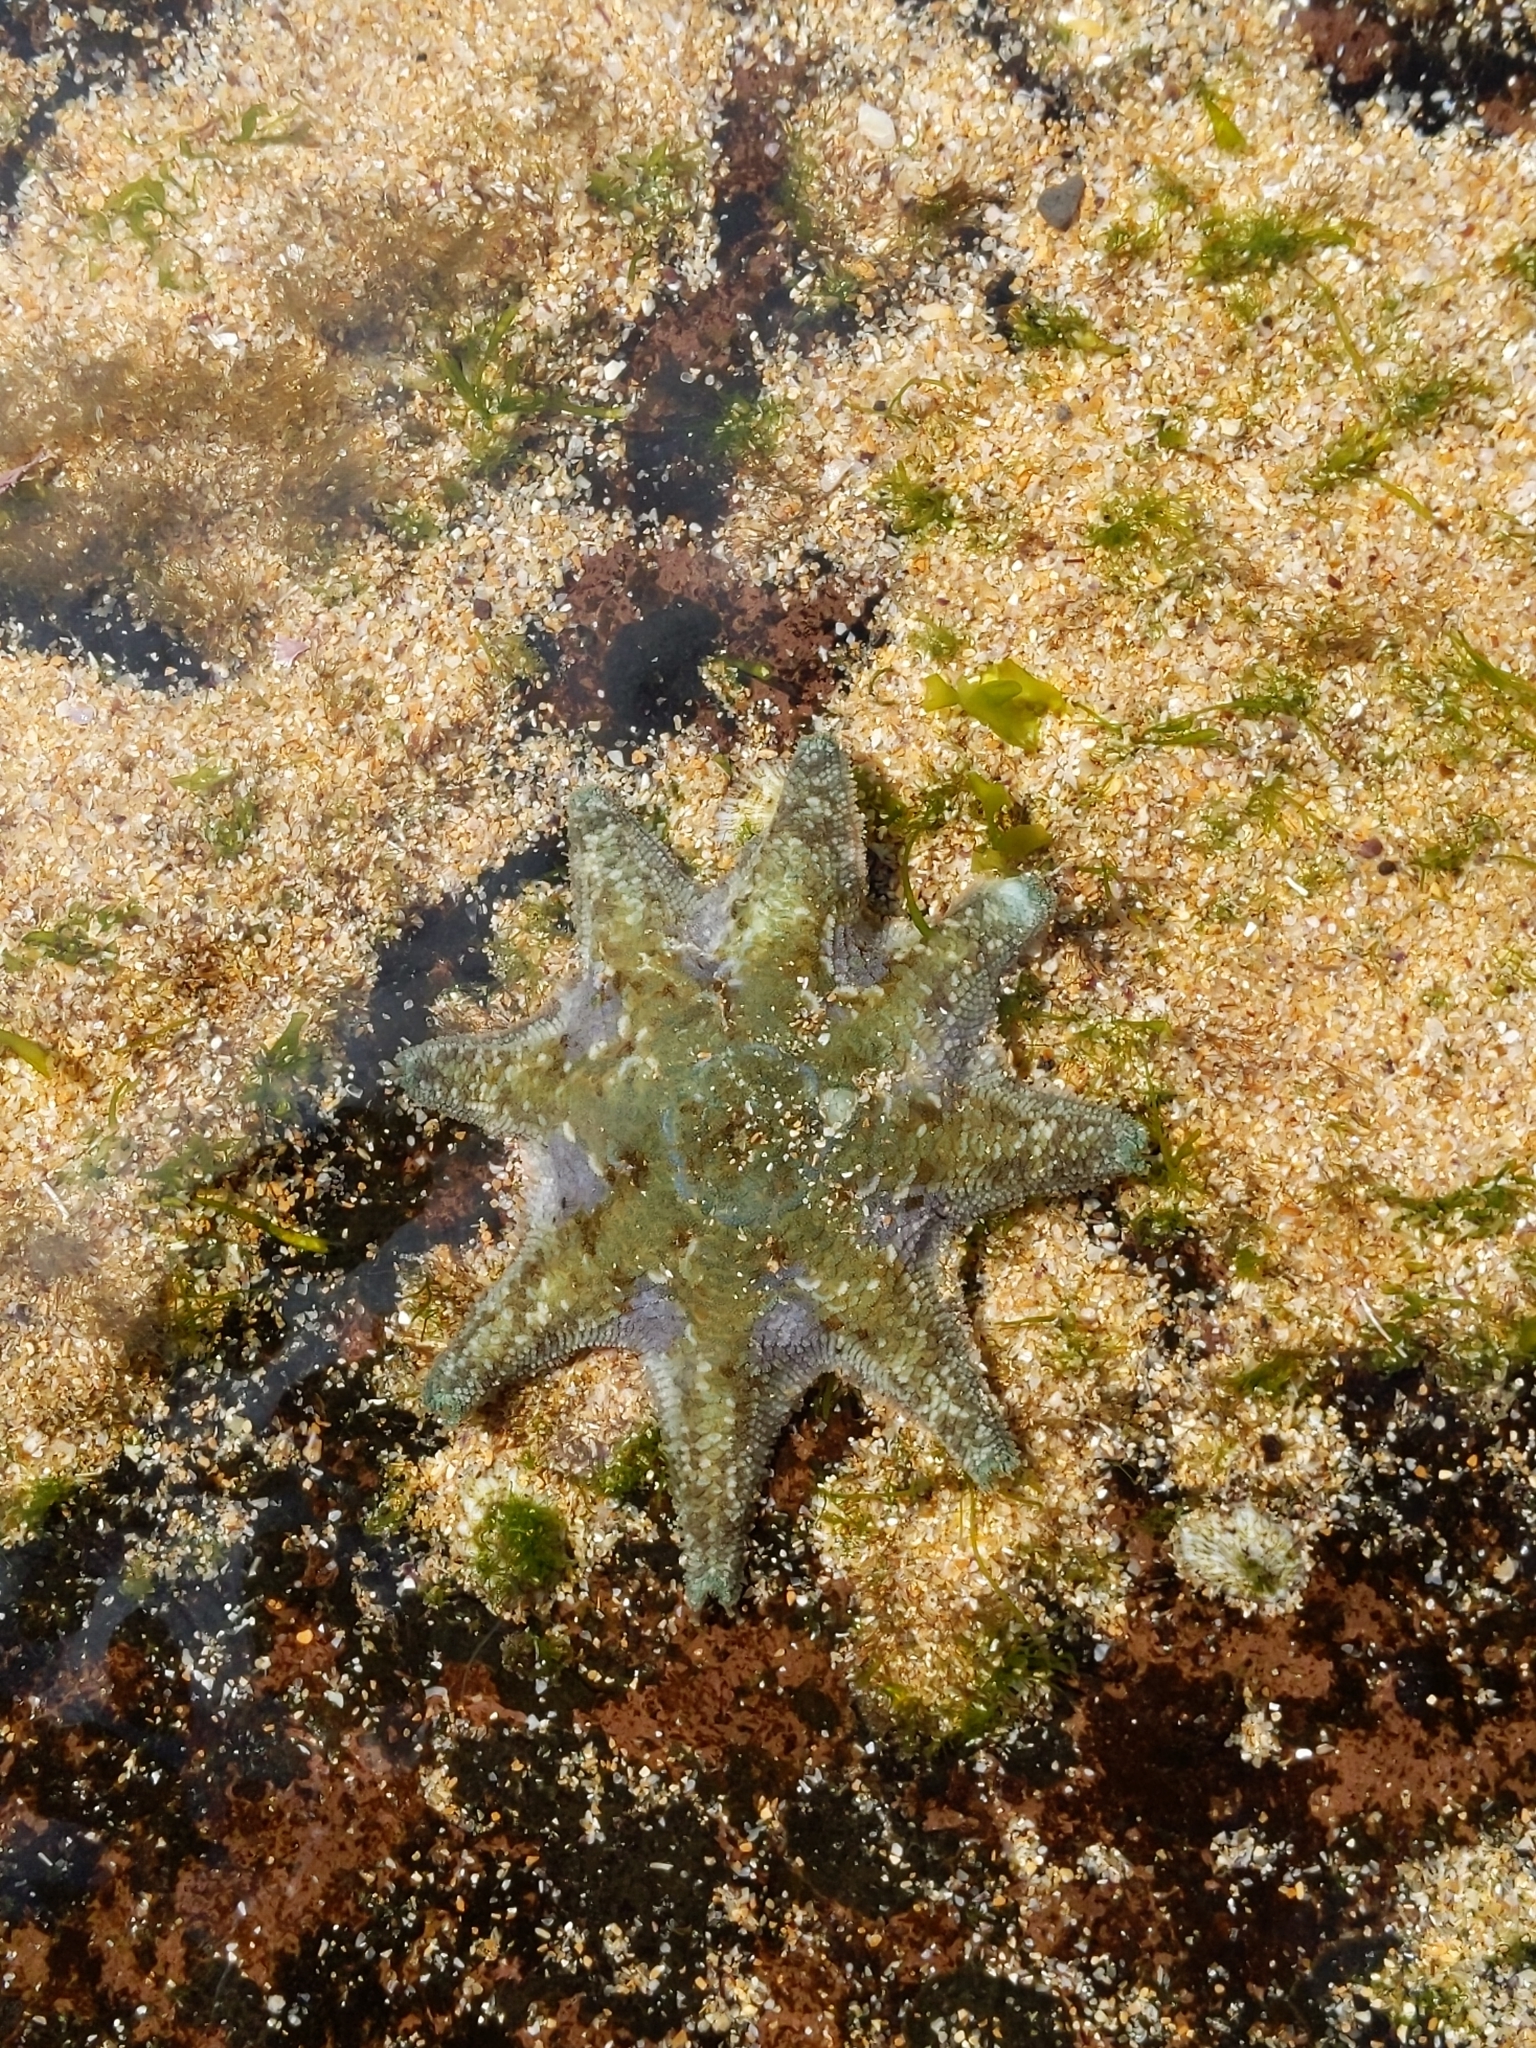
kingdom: Animalia
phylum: Echinodermata
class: Asteroidea
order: Valvatida
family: Asterinidae
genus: Meridiastra
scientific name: Meridiastra calcar
